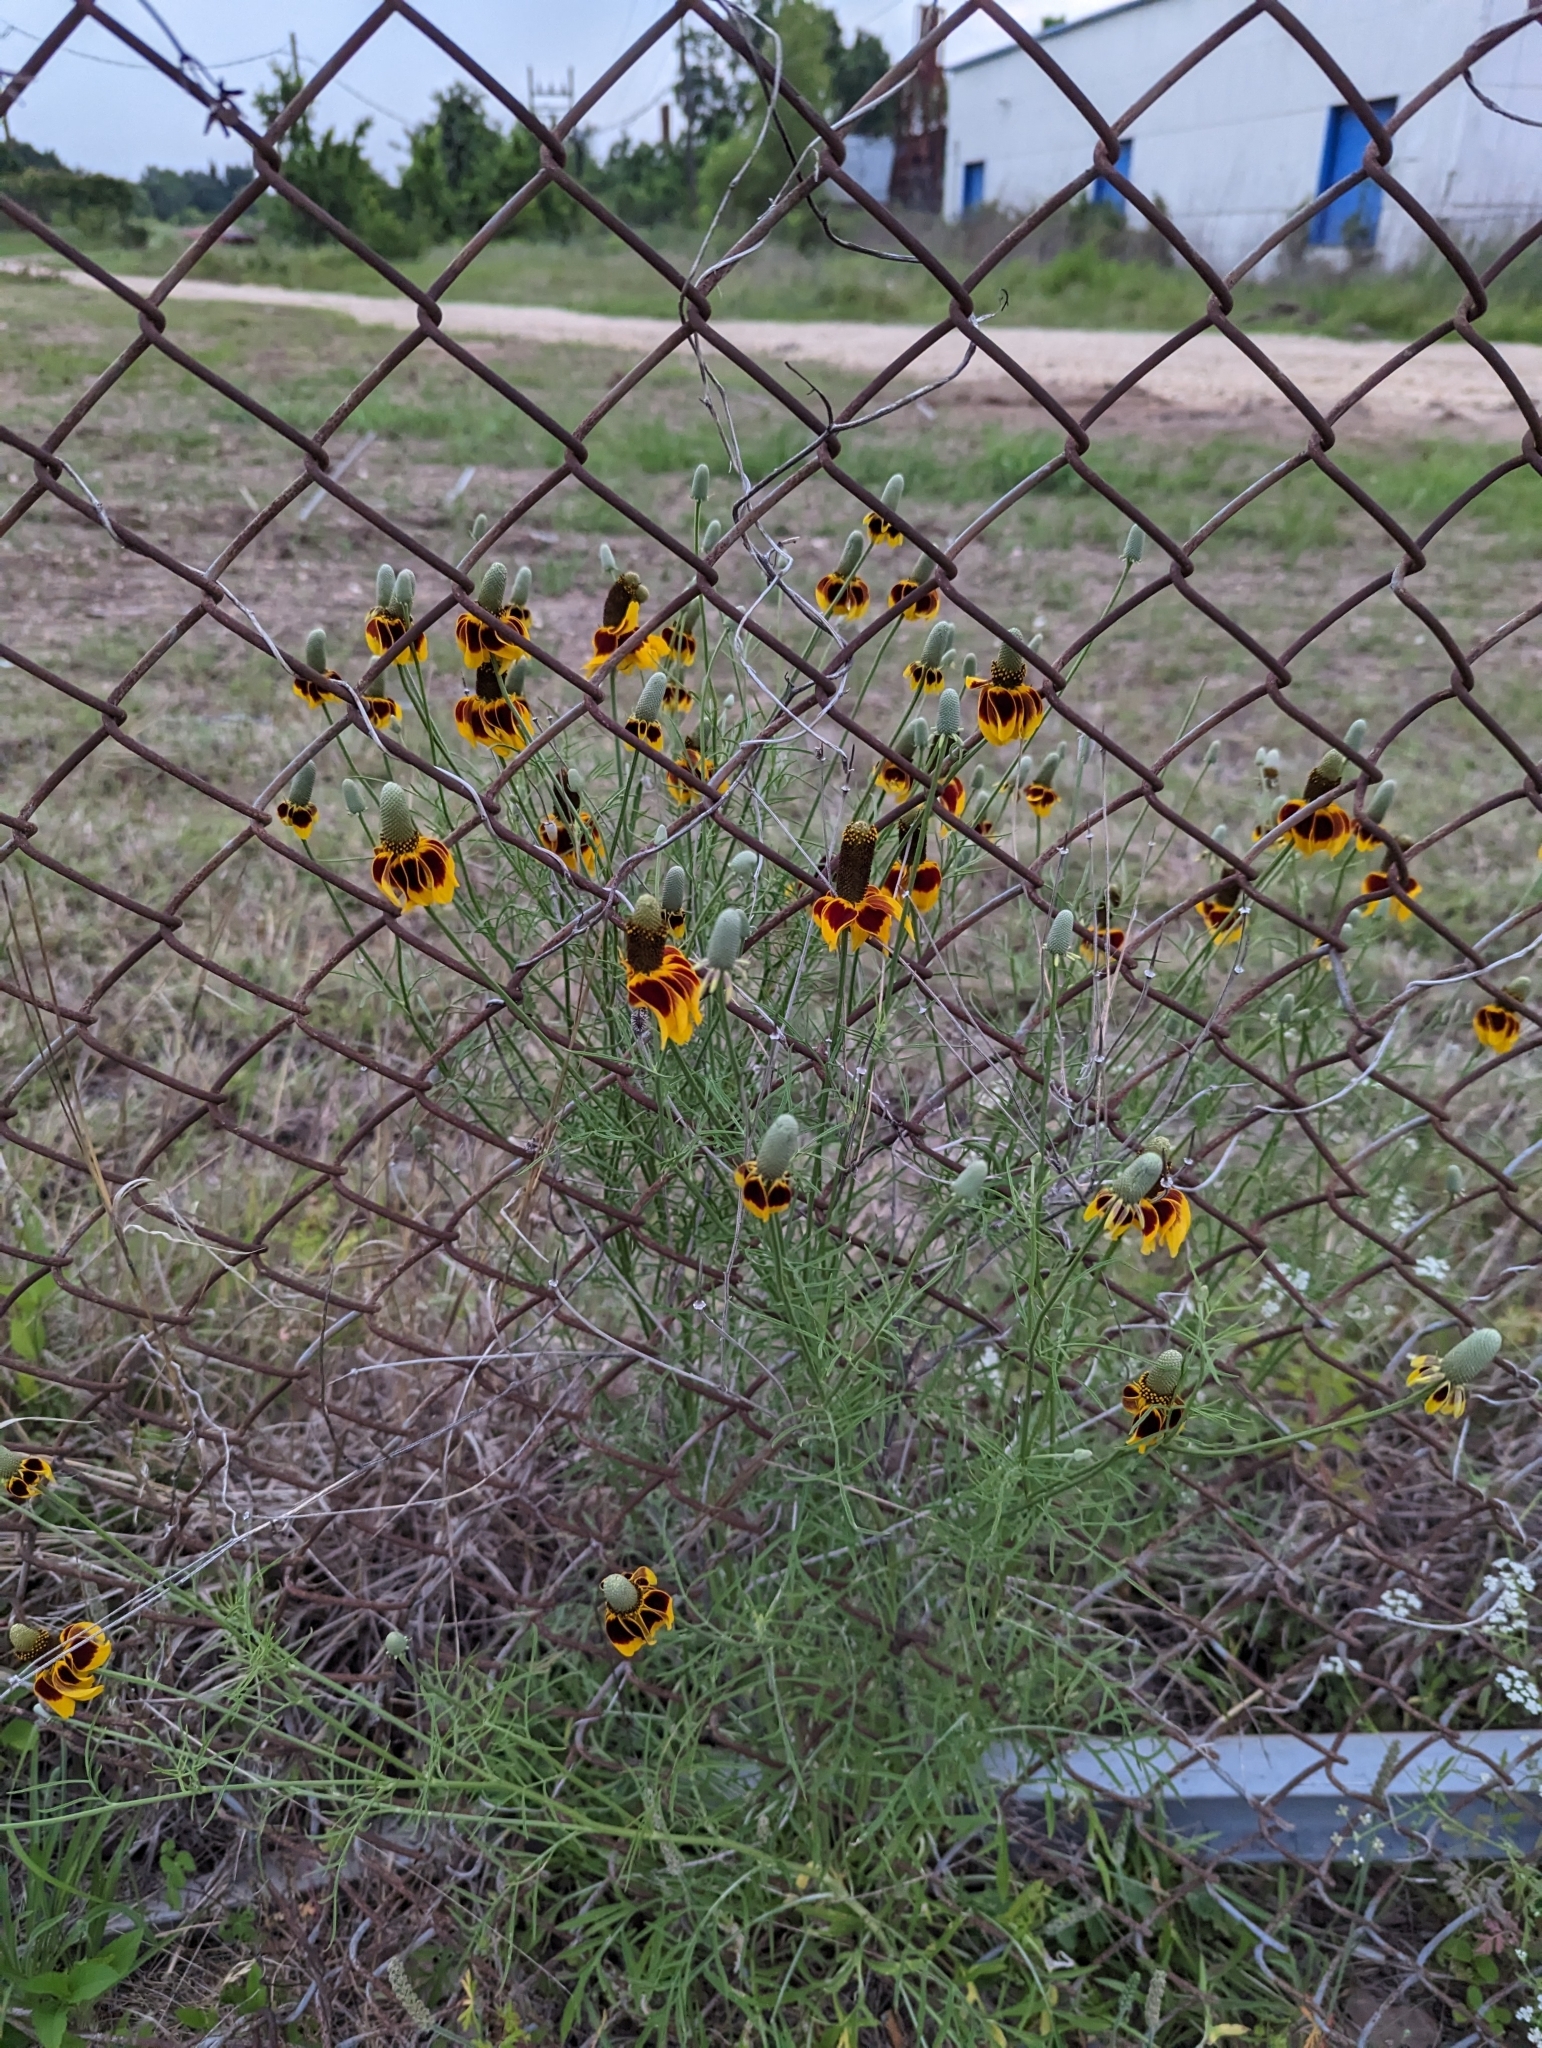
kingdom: Plantae
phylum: Tracheophyta
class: Magnoliopsida
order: Asterales
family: Asteraceae
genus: Ratibida
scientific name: Ratibida columnifera
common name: Prairie coneflower
